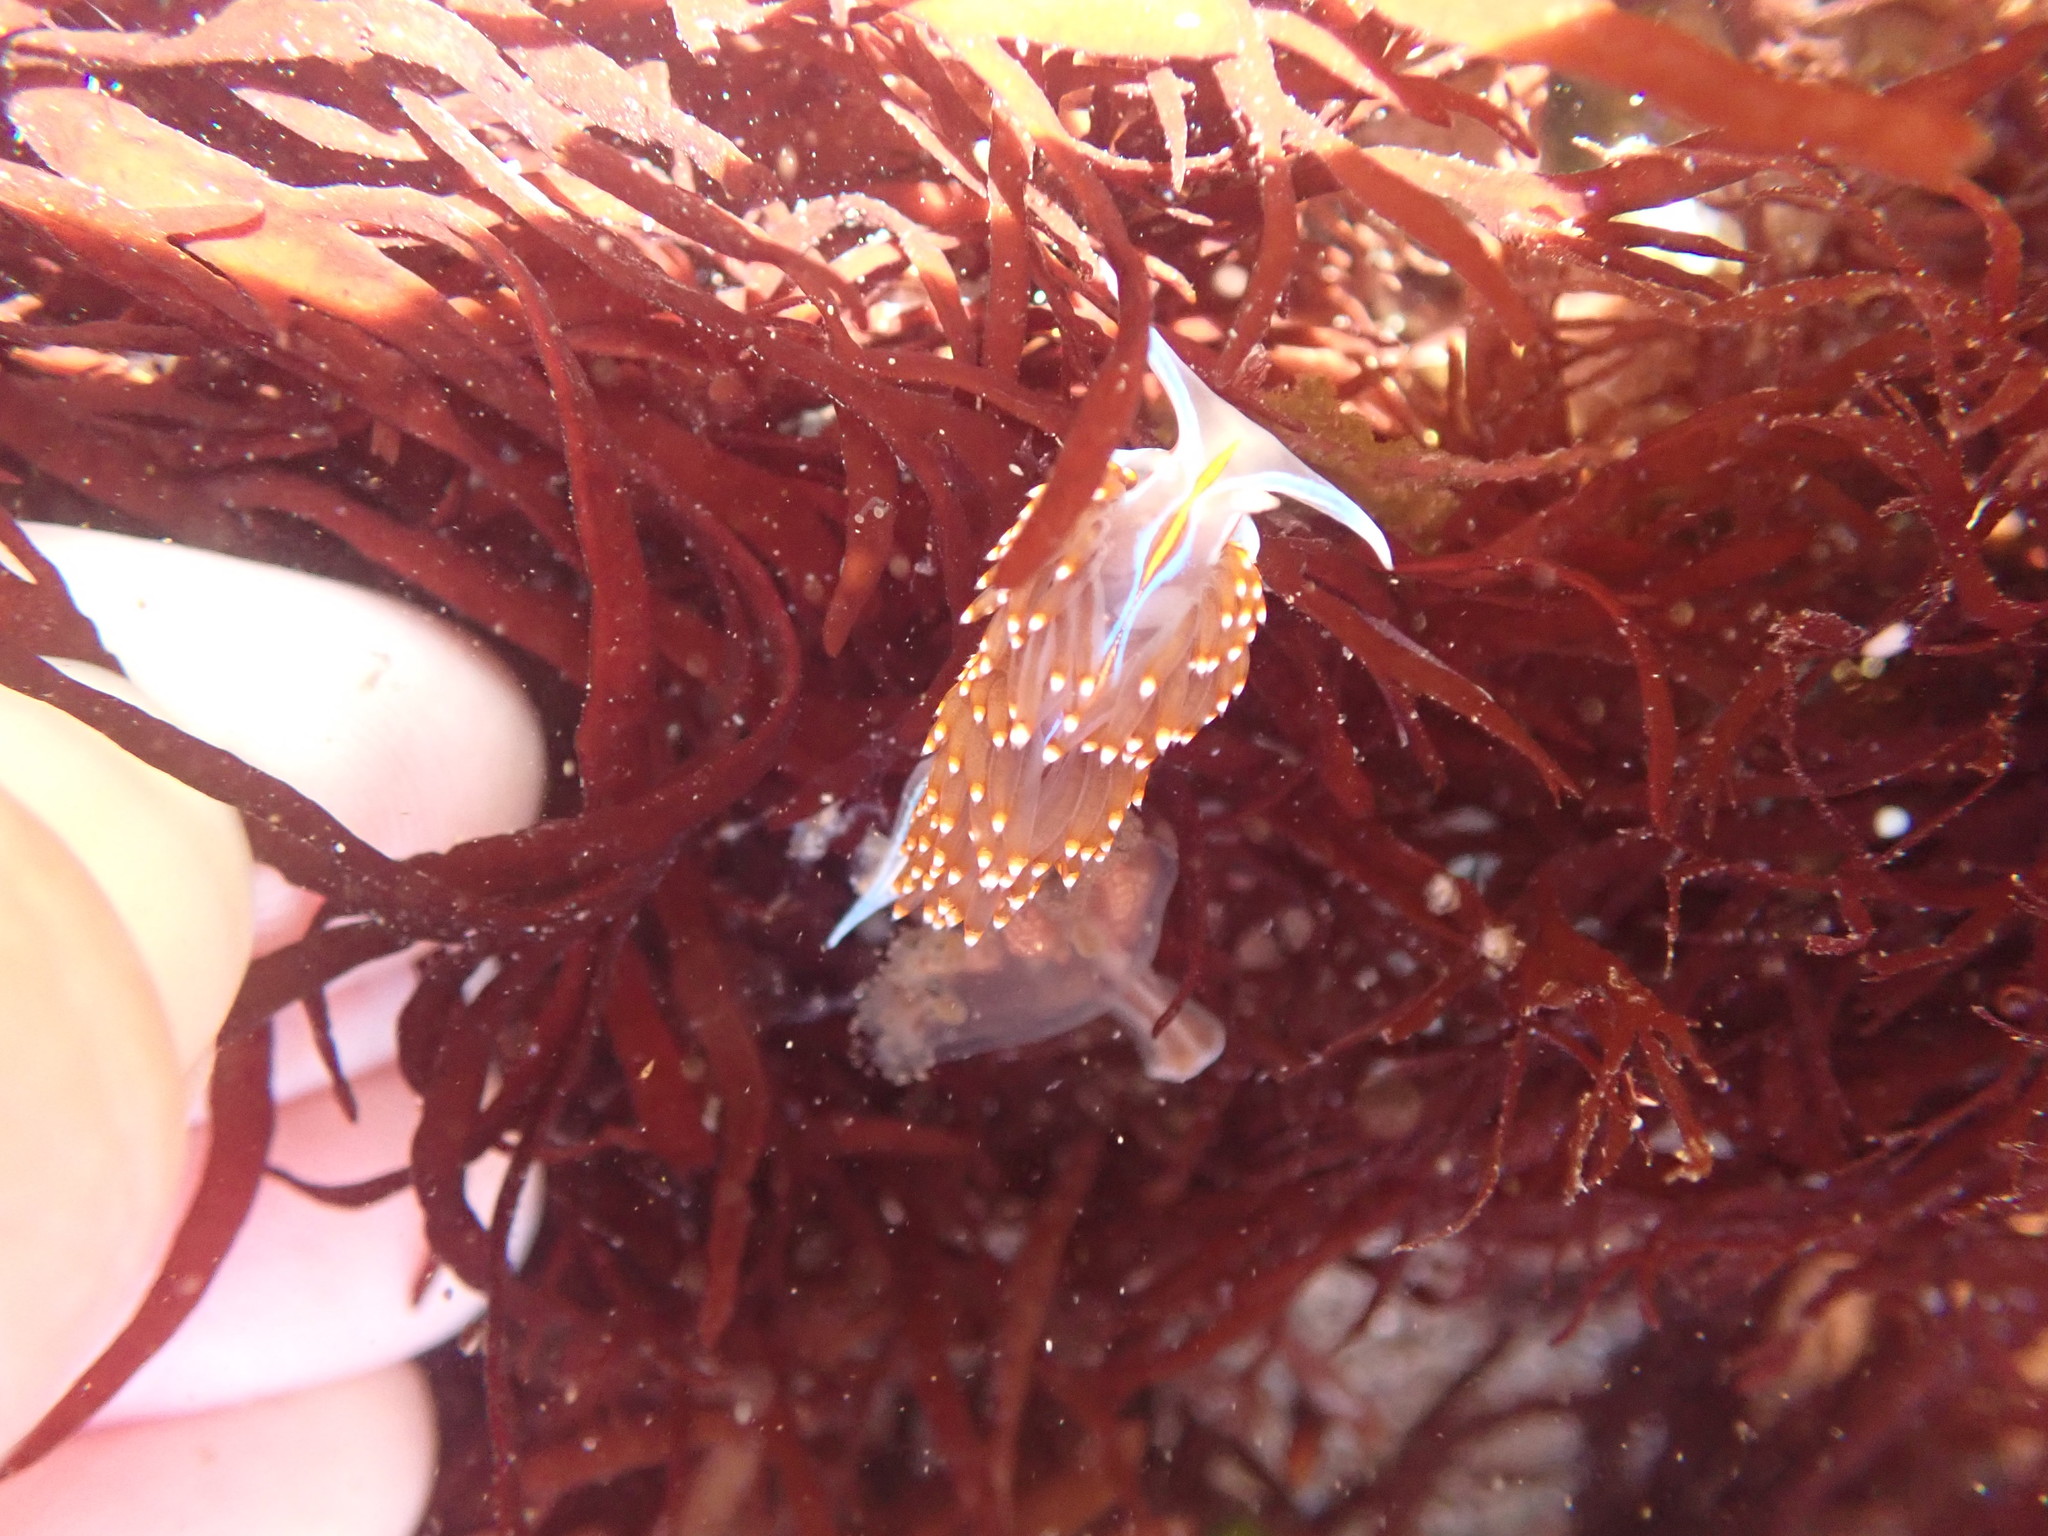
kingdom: Animalia
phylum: Mollusca
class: Gastropoda
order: Nudibranchia
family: Myrrhinidae
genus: Hermissenda
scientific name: Hermissenda opalescens
